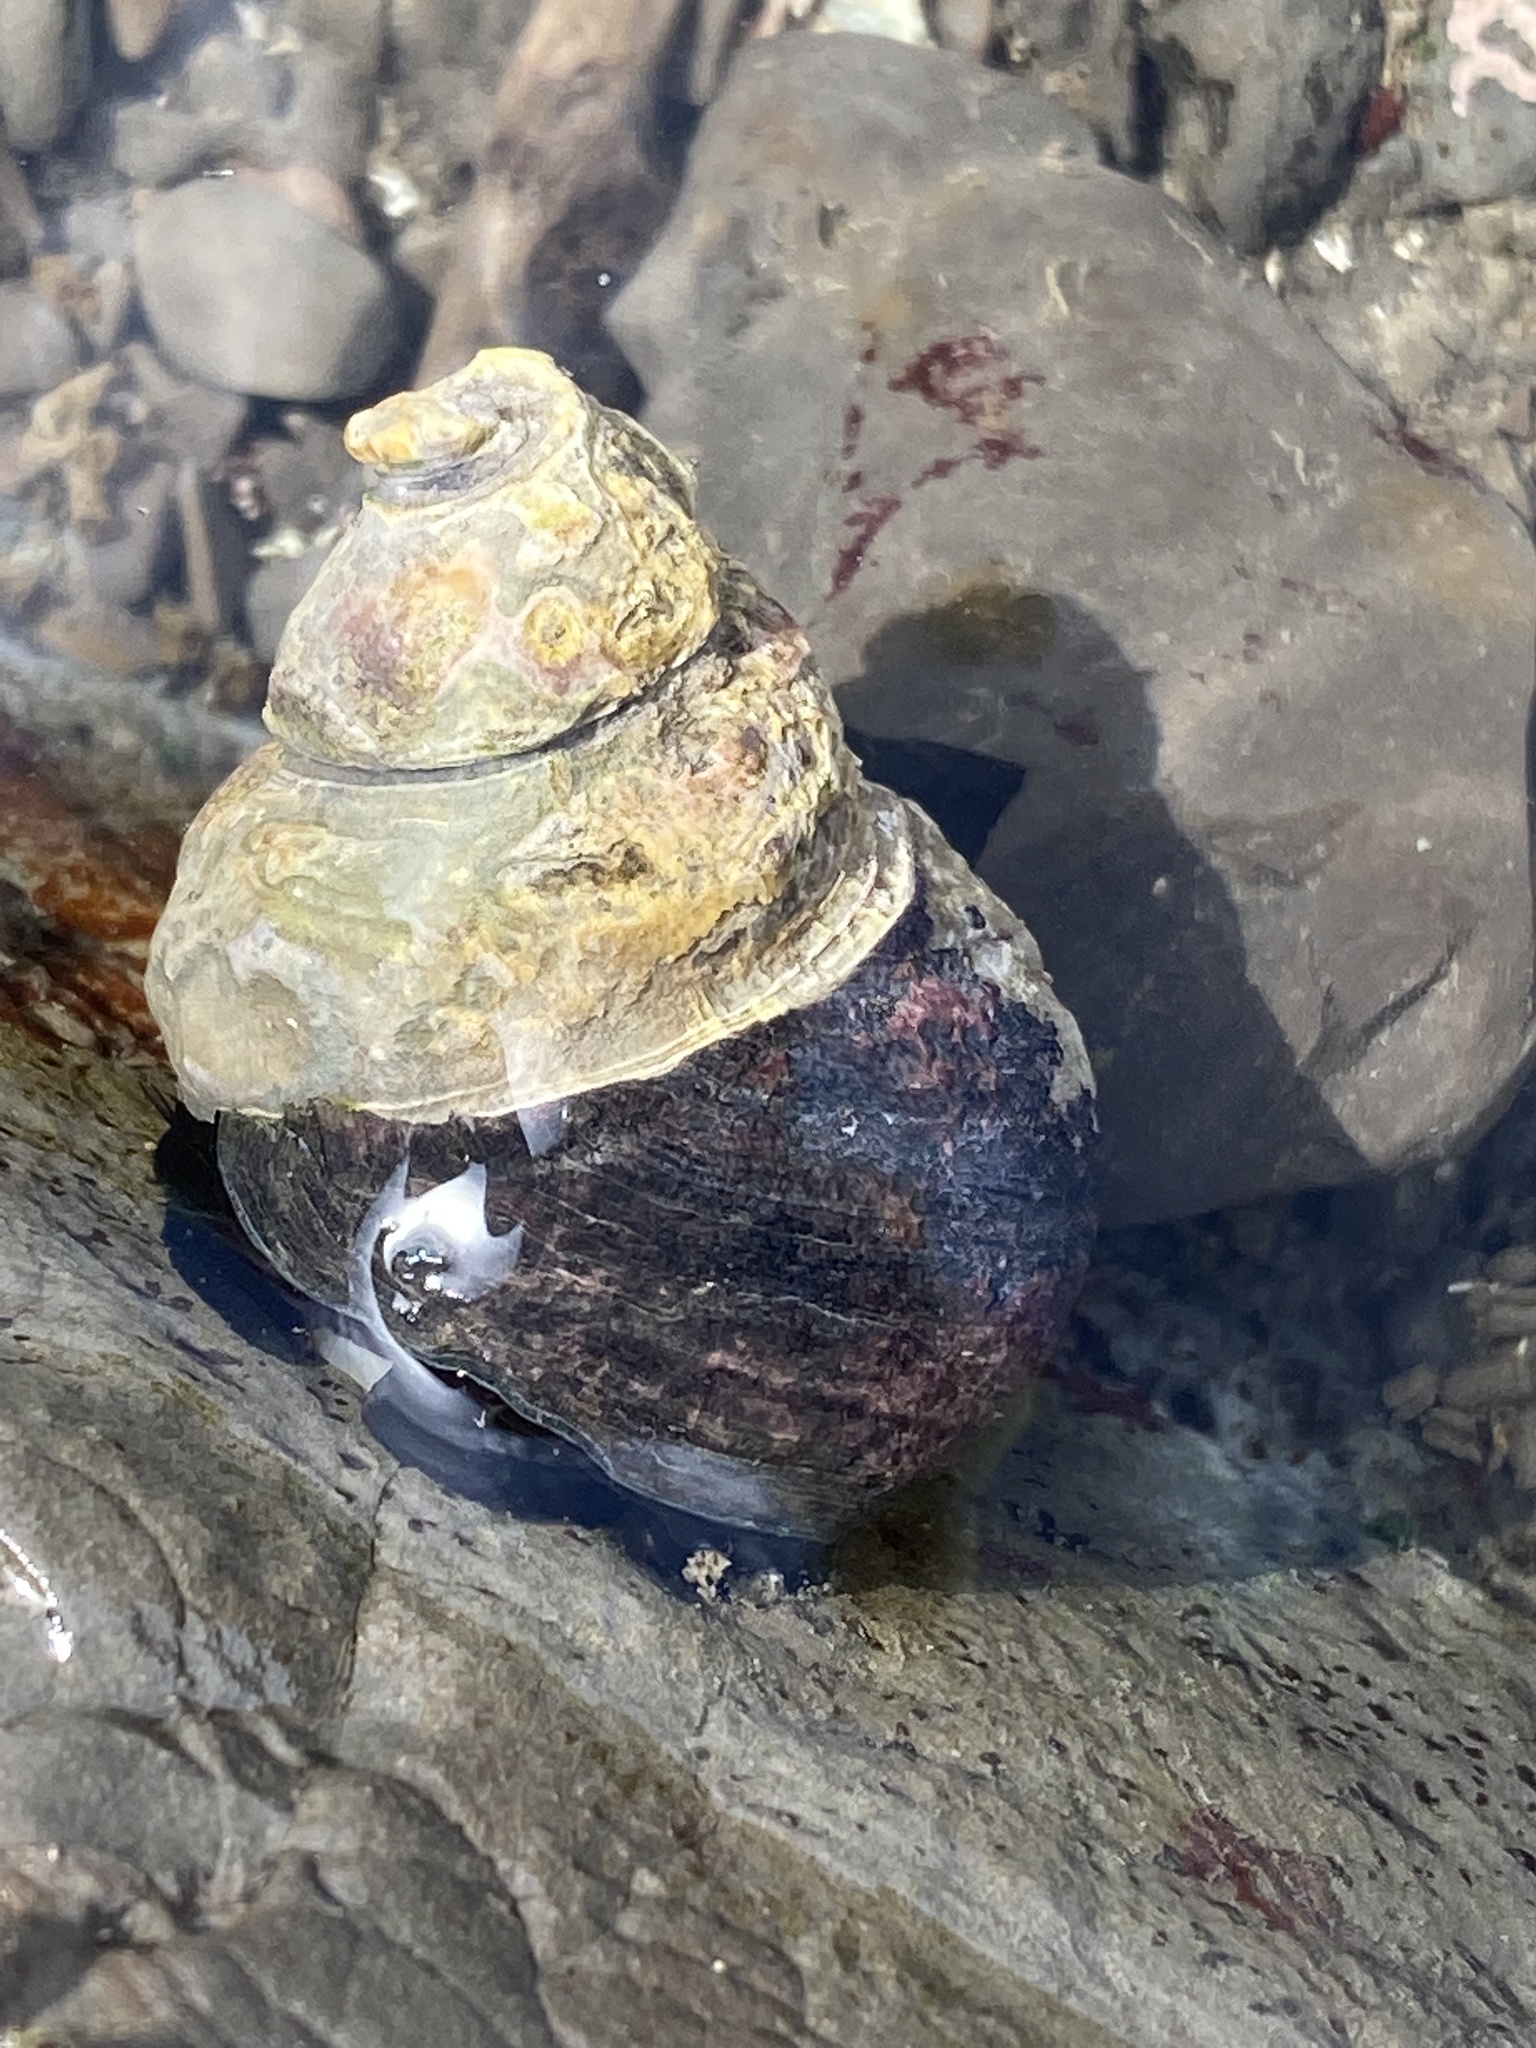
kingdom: Animalia
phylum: Mollusca
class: Gastropoda
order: Trochida
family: Tegulidae
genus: Tegula
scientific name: Tegula funebralis
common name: Black tegula
